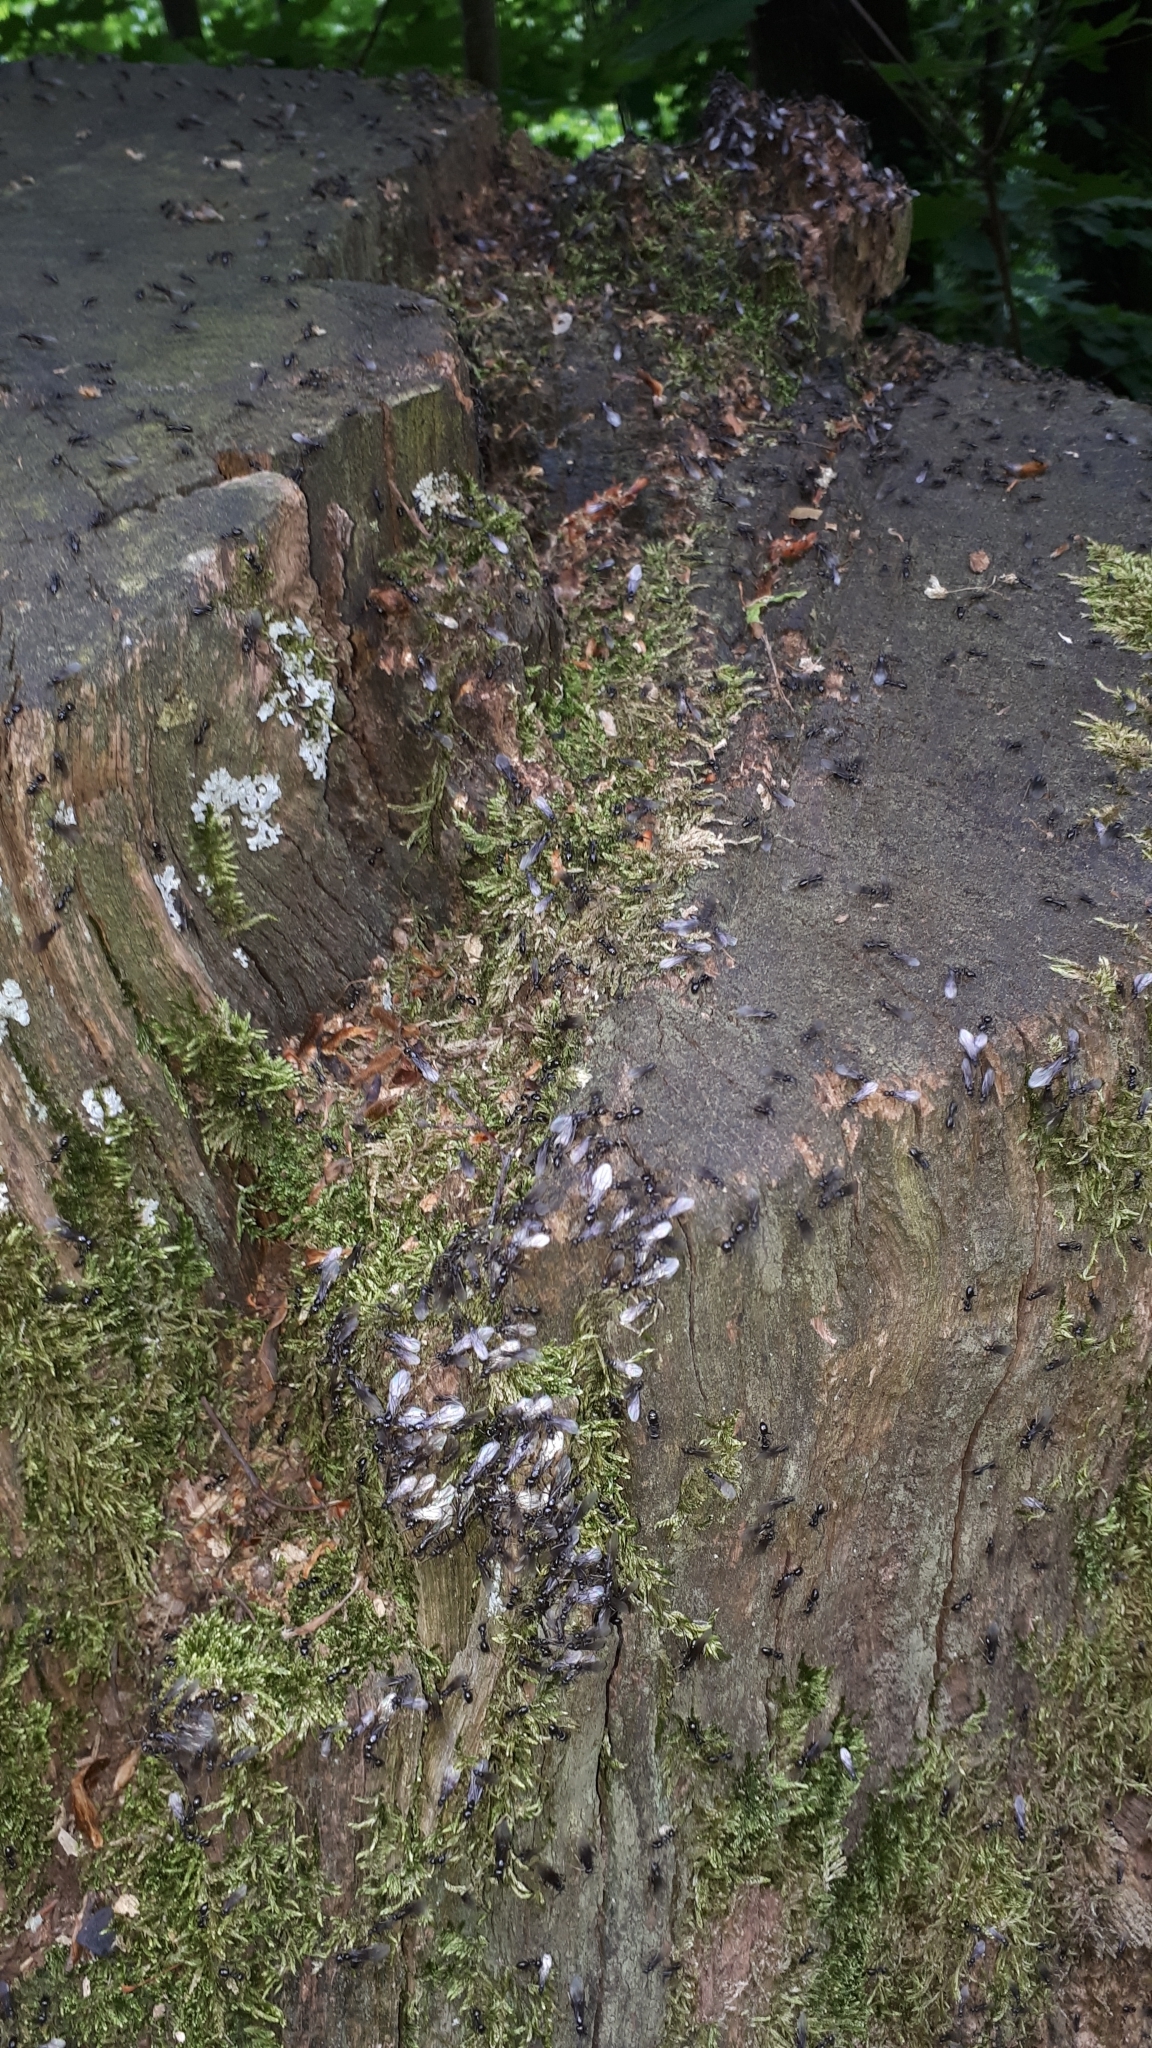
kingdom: Animalia
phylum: Arthropoda
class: Insecta
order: Hymenoptera
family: Formicidae
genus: Lasius
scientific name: Lasius fuliginosus
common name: Jet ant
